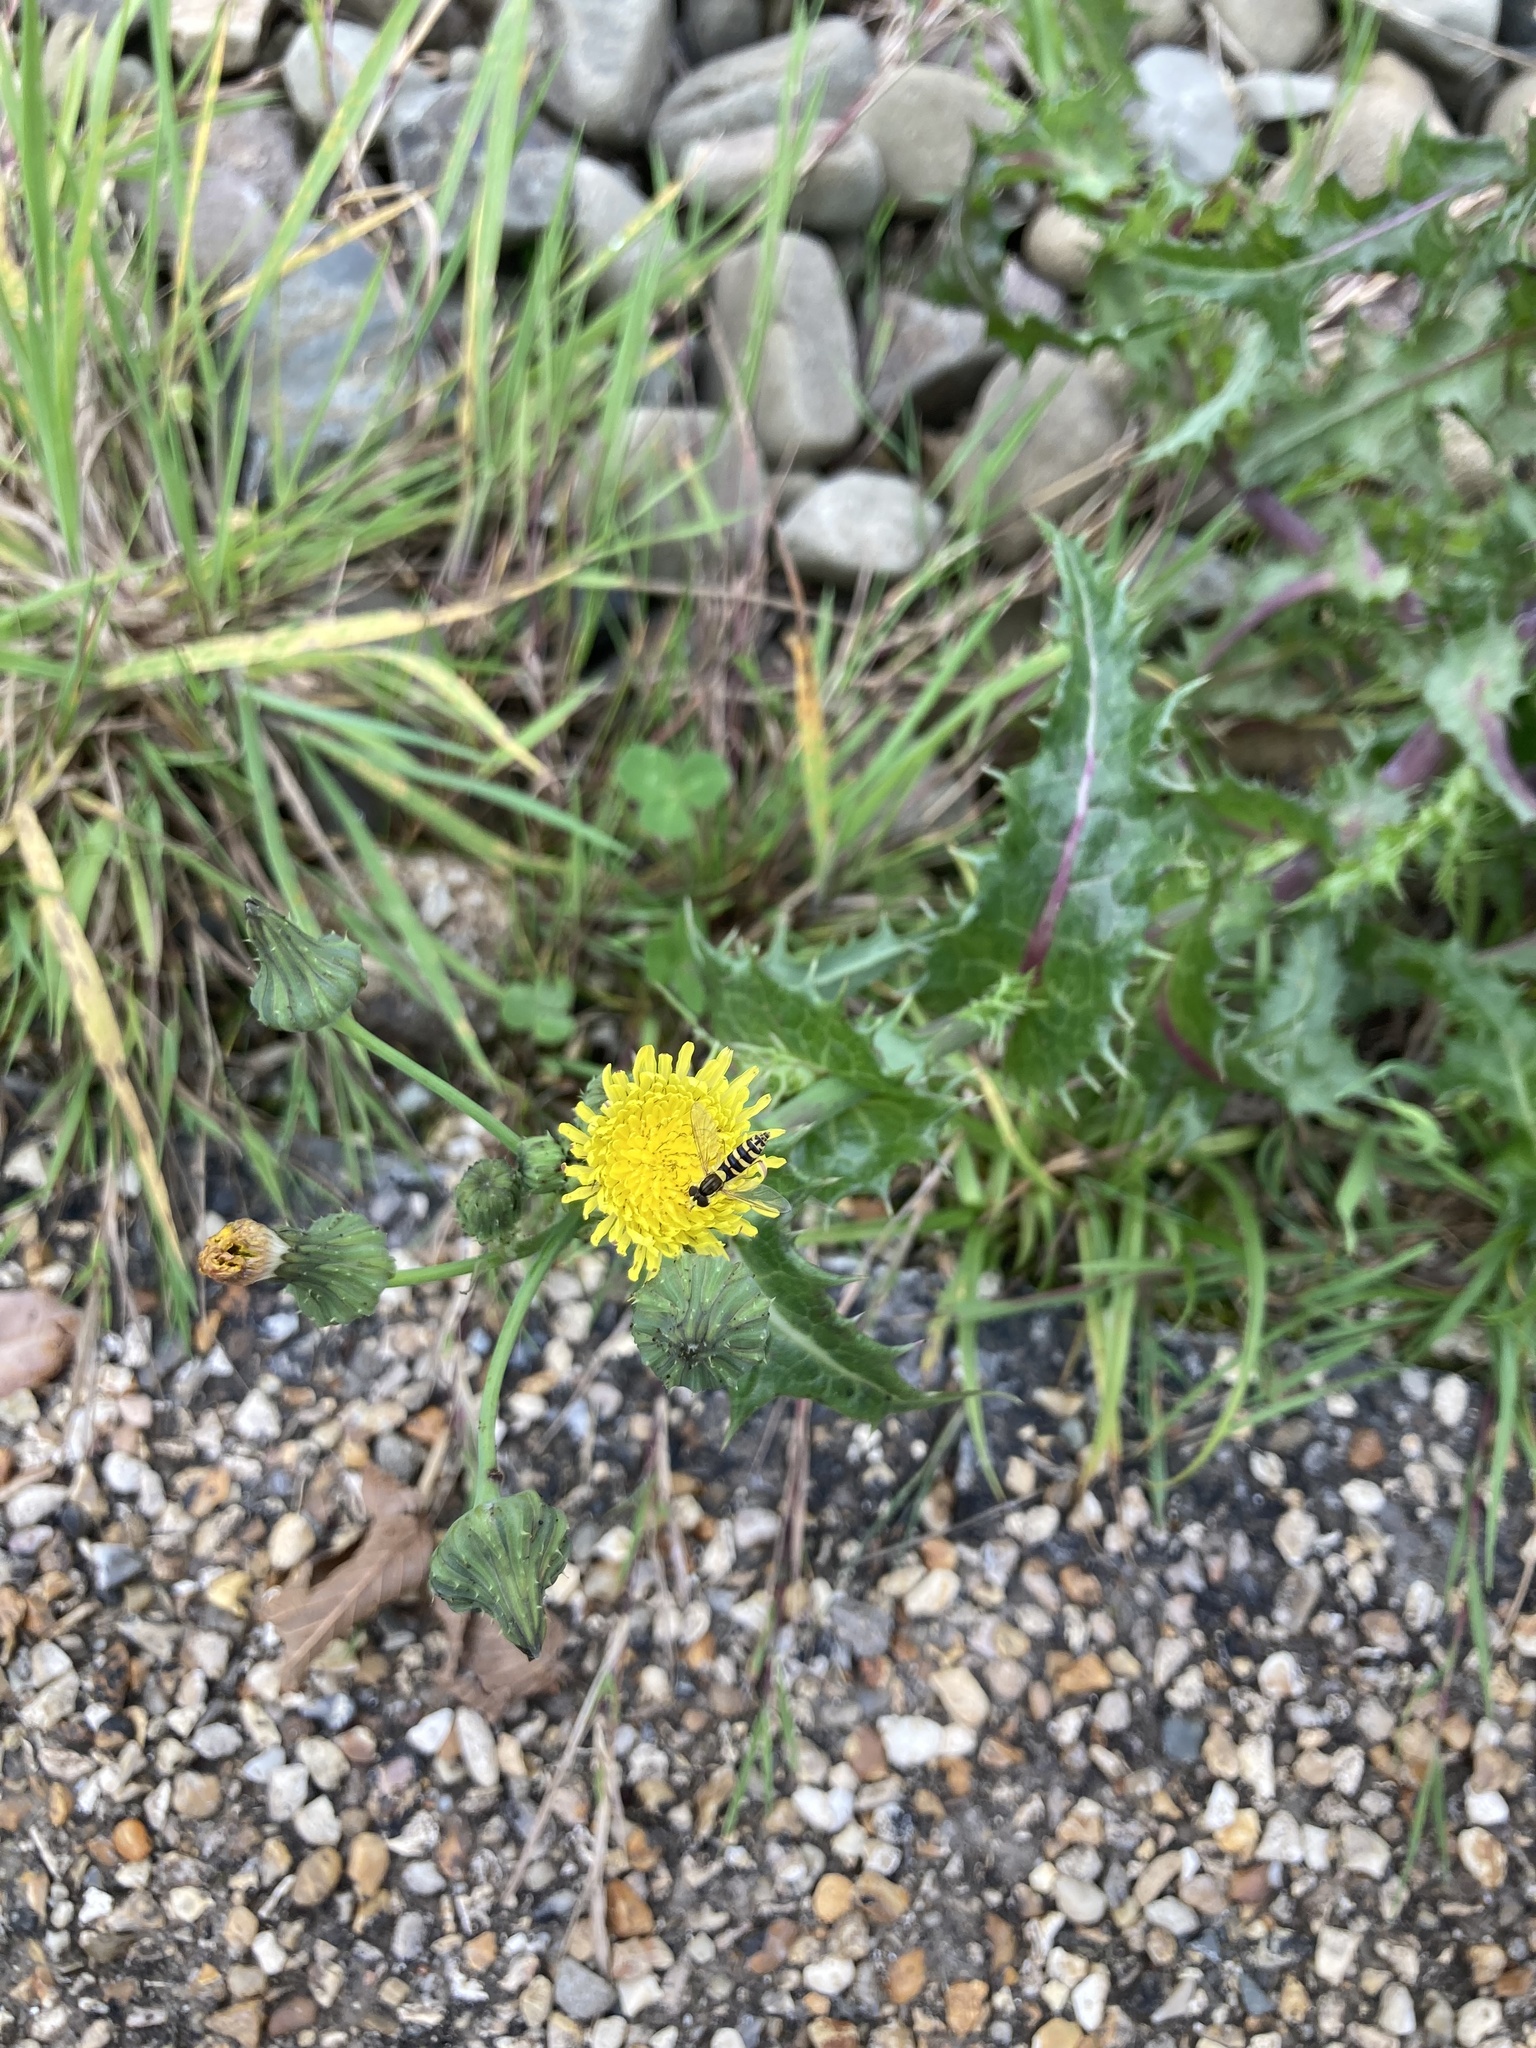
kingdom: Animalia
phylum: Arthropoda
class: Insecta
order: Diptera
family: Syrphidae
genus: Sphaerophoria
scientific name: Sphaerophoria
